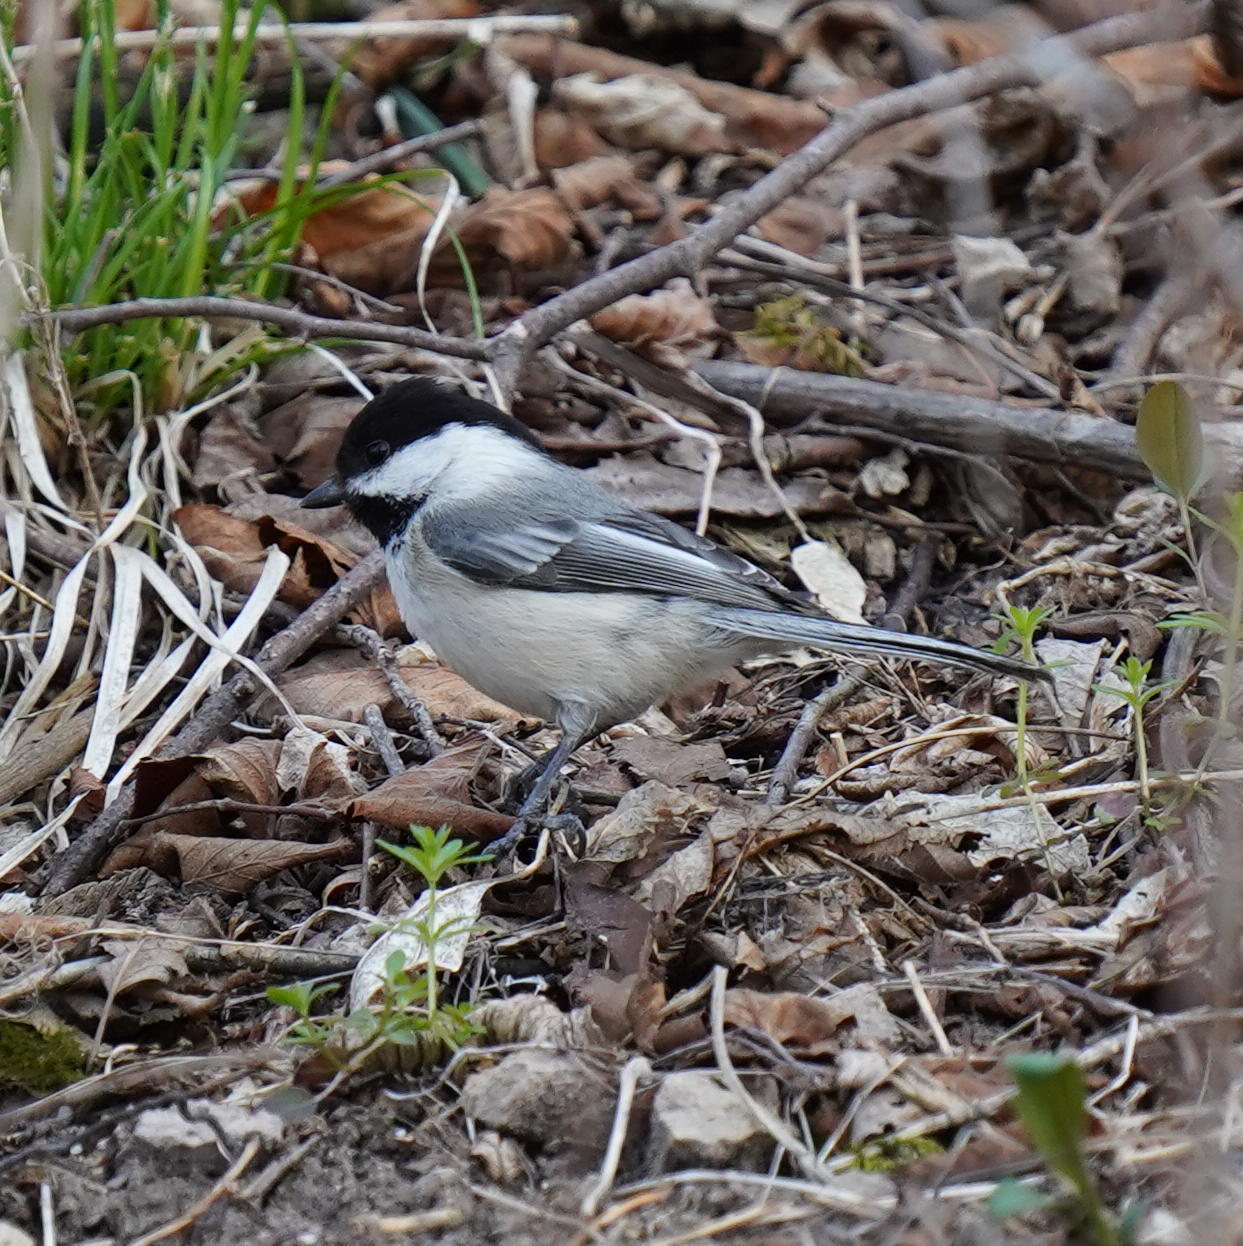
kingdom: Animalia
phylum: Chordata
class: Aves
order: Passeriformes
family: Paridae
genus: Poecile
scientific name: Poecile atricapillus
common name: Black-capped chickadee
